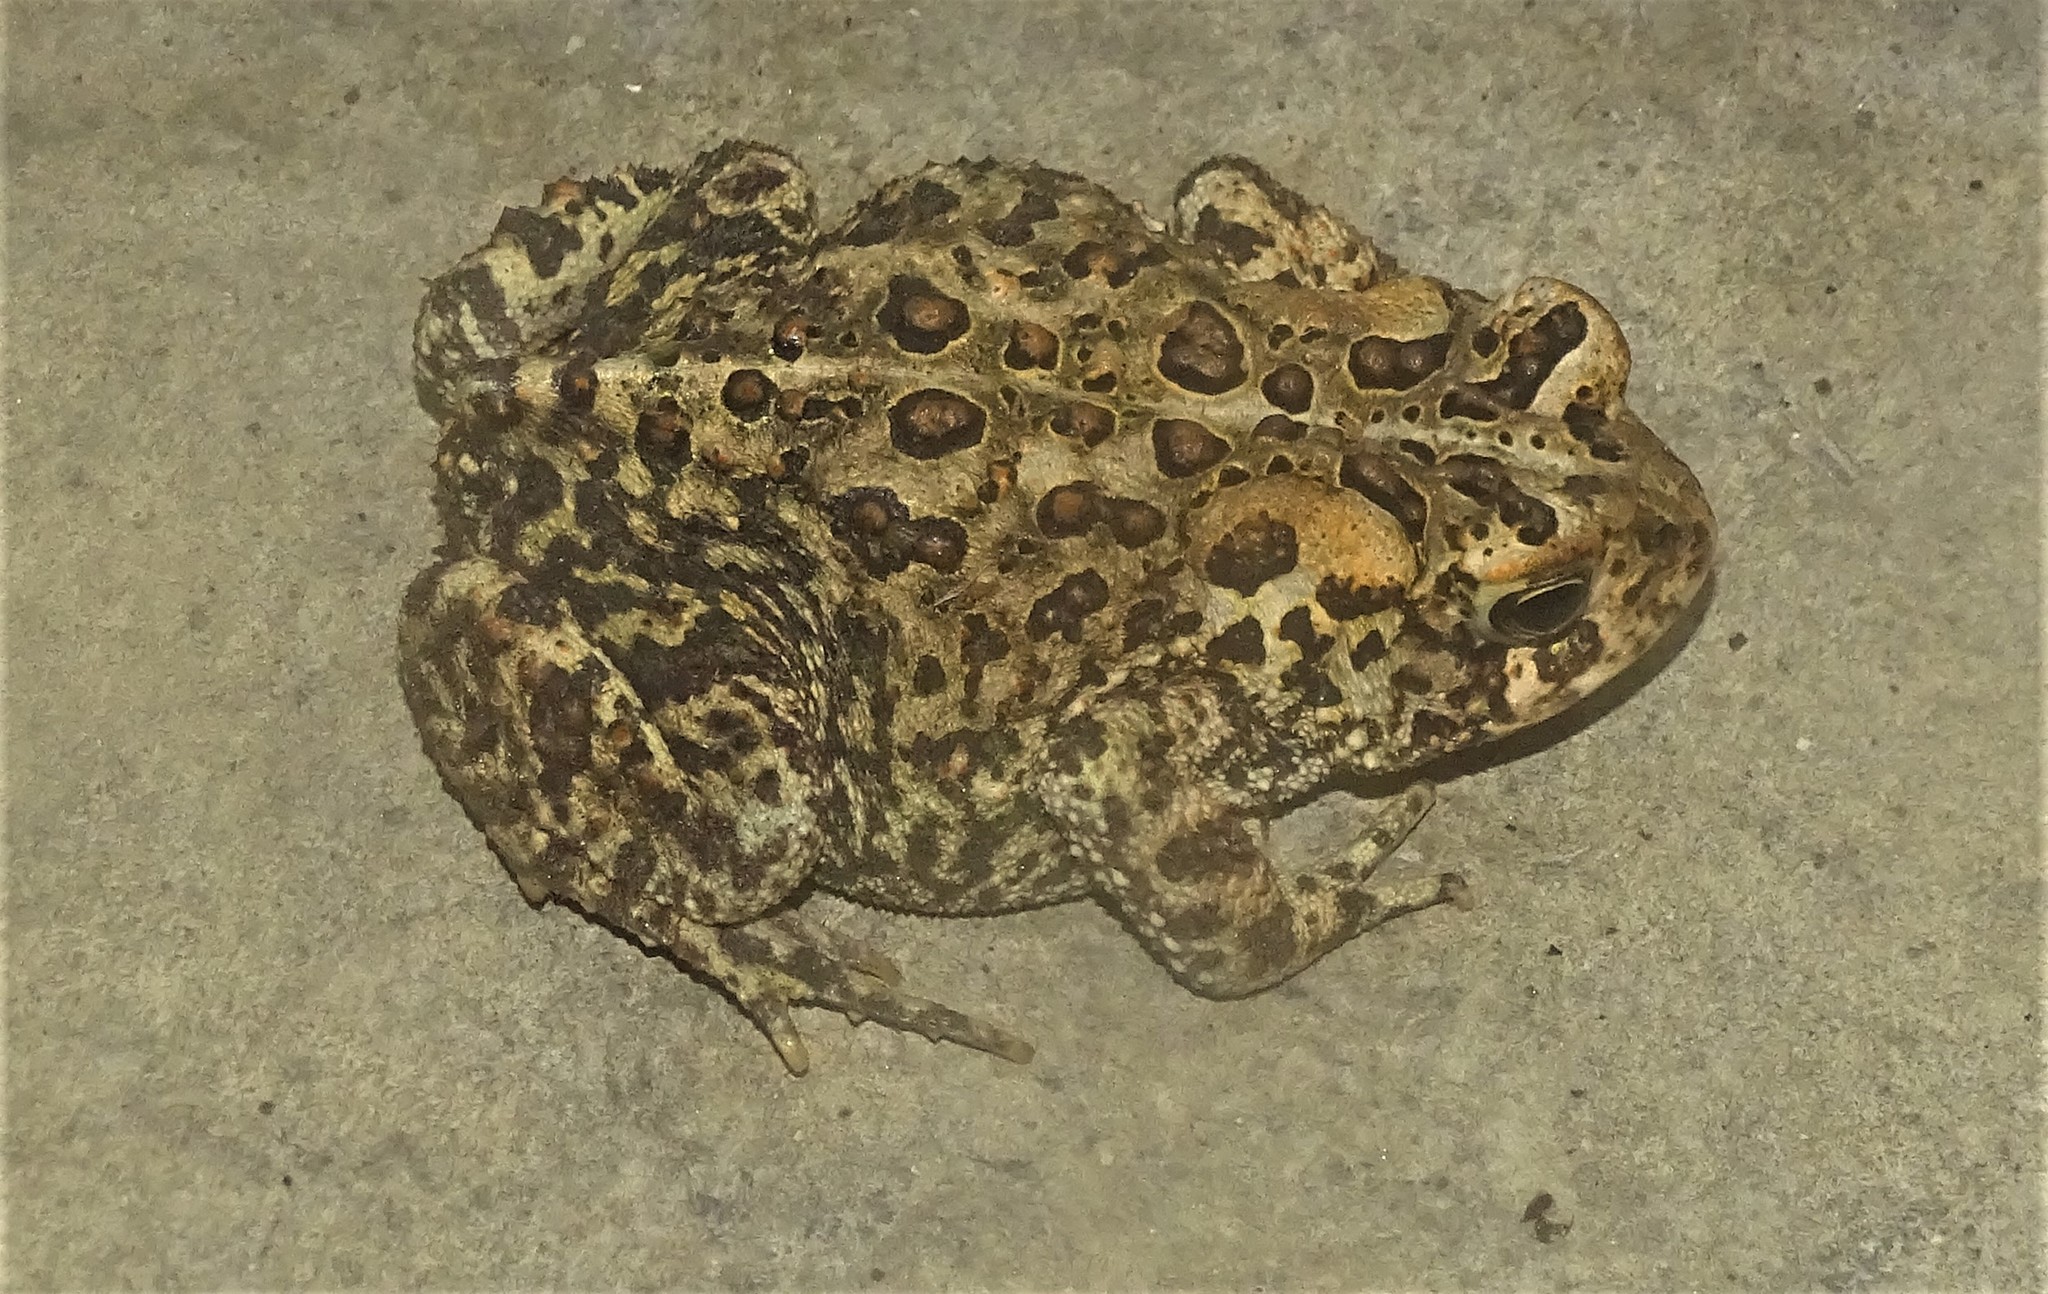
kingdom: Animalia
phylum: Chordata
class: Amphibia
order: Anura
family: Bufonidae
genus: Anaxyrus
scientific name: Anaxyrus americanus
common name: American toad
